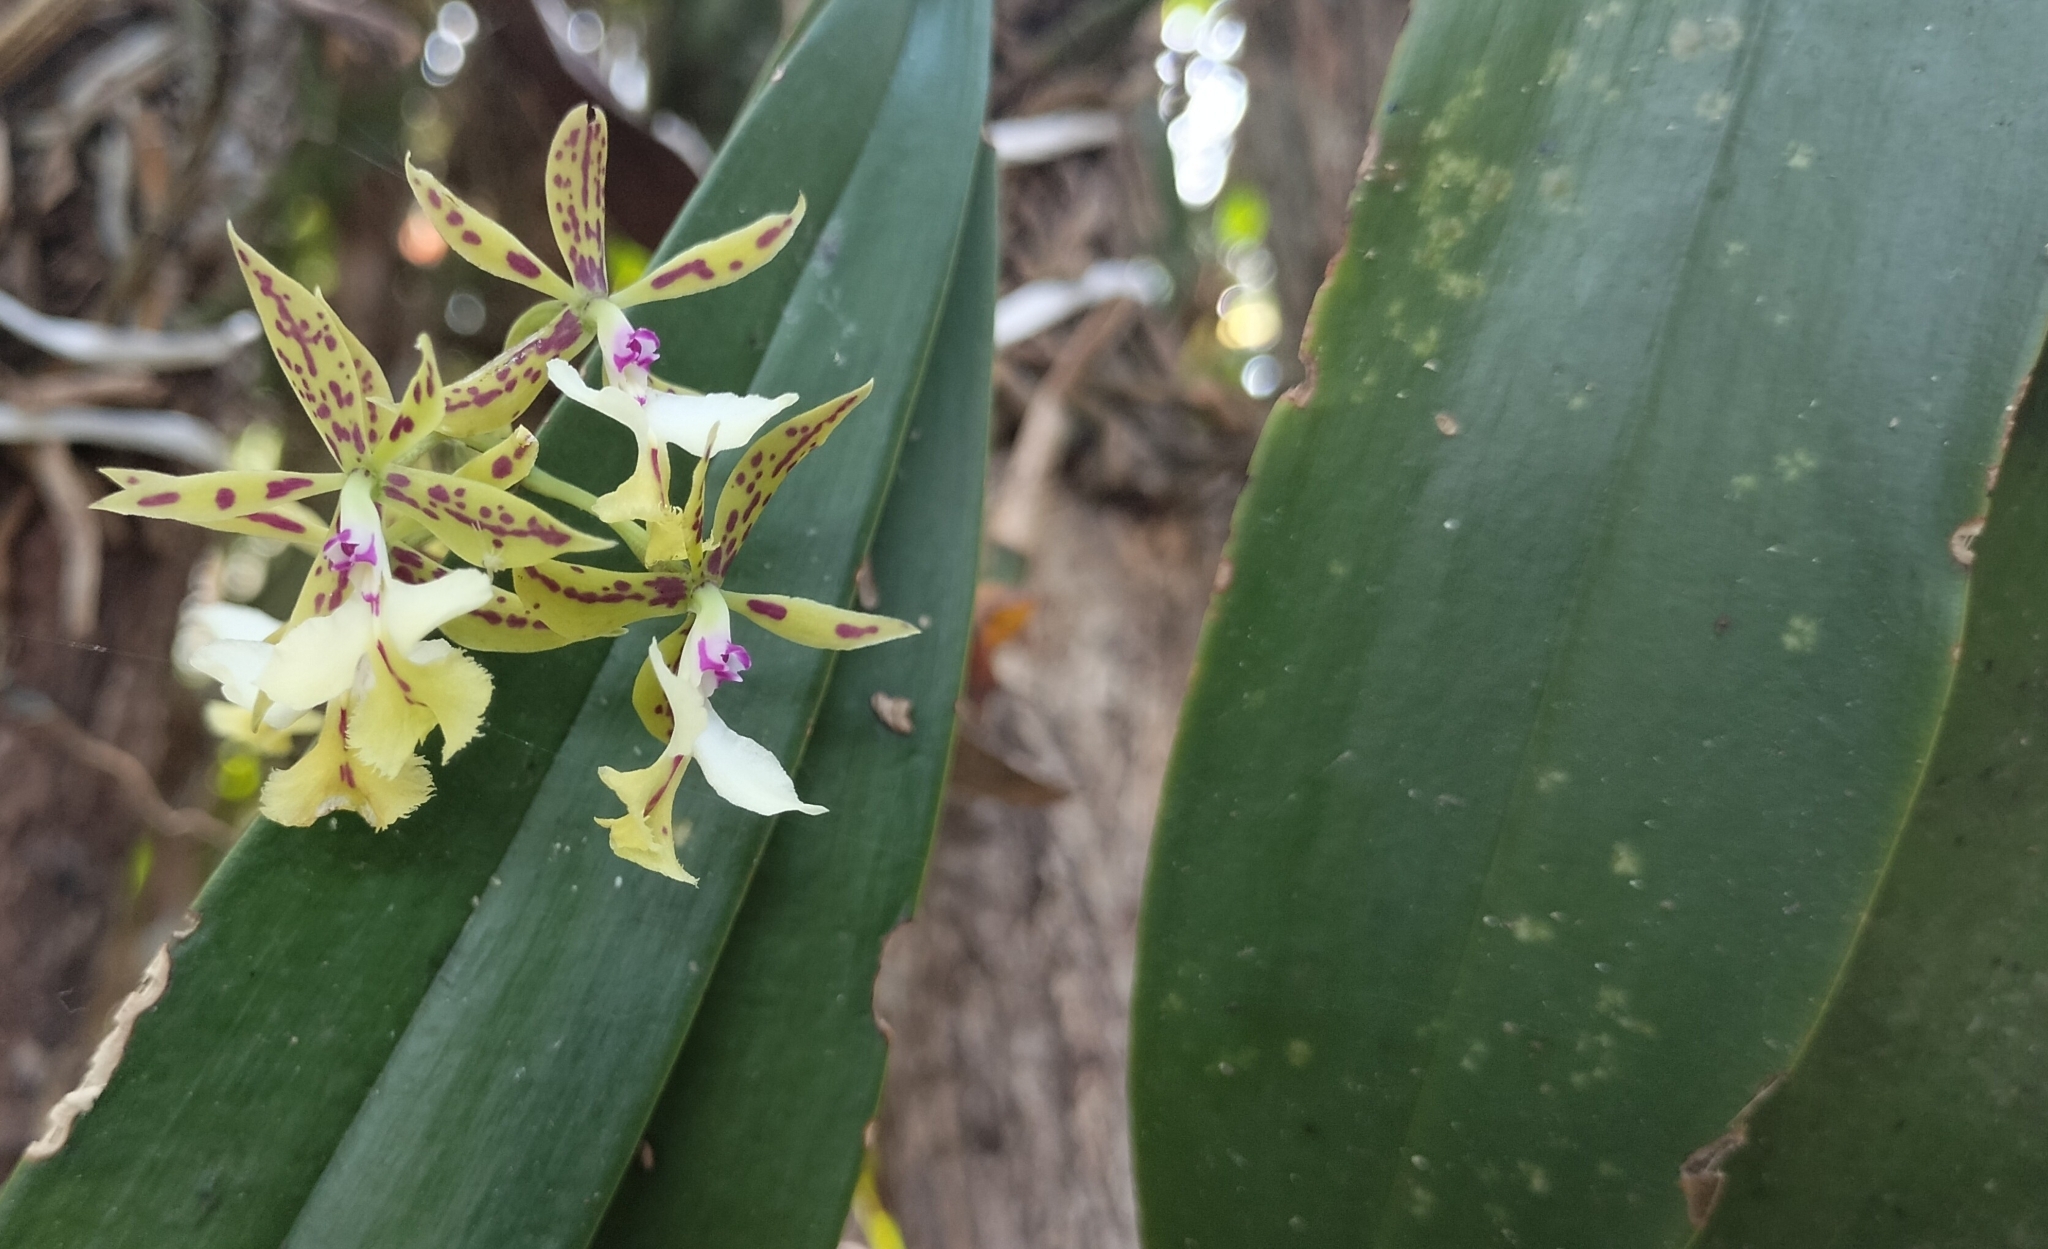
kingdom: Plantae
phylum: Tracheophyta
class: Liliopsida
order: Asparagales
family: Orchidaceae
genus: Epidendrum
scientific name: Epidendrum stamfordianum
